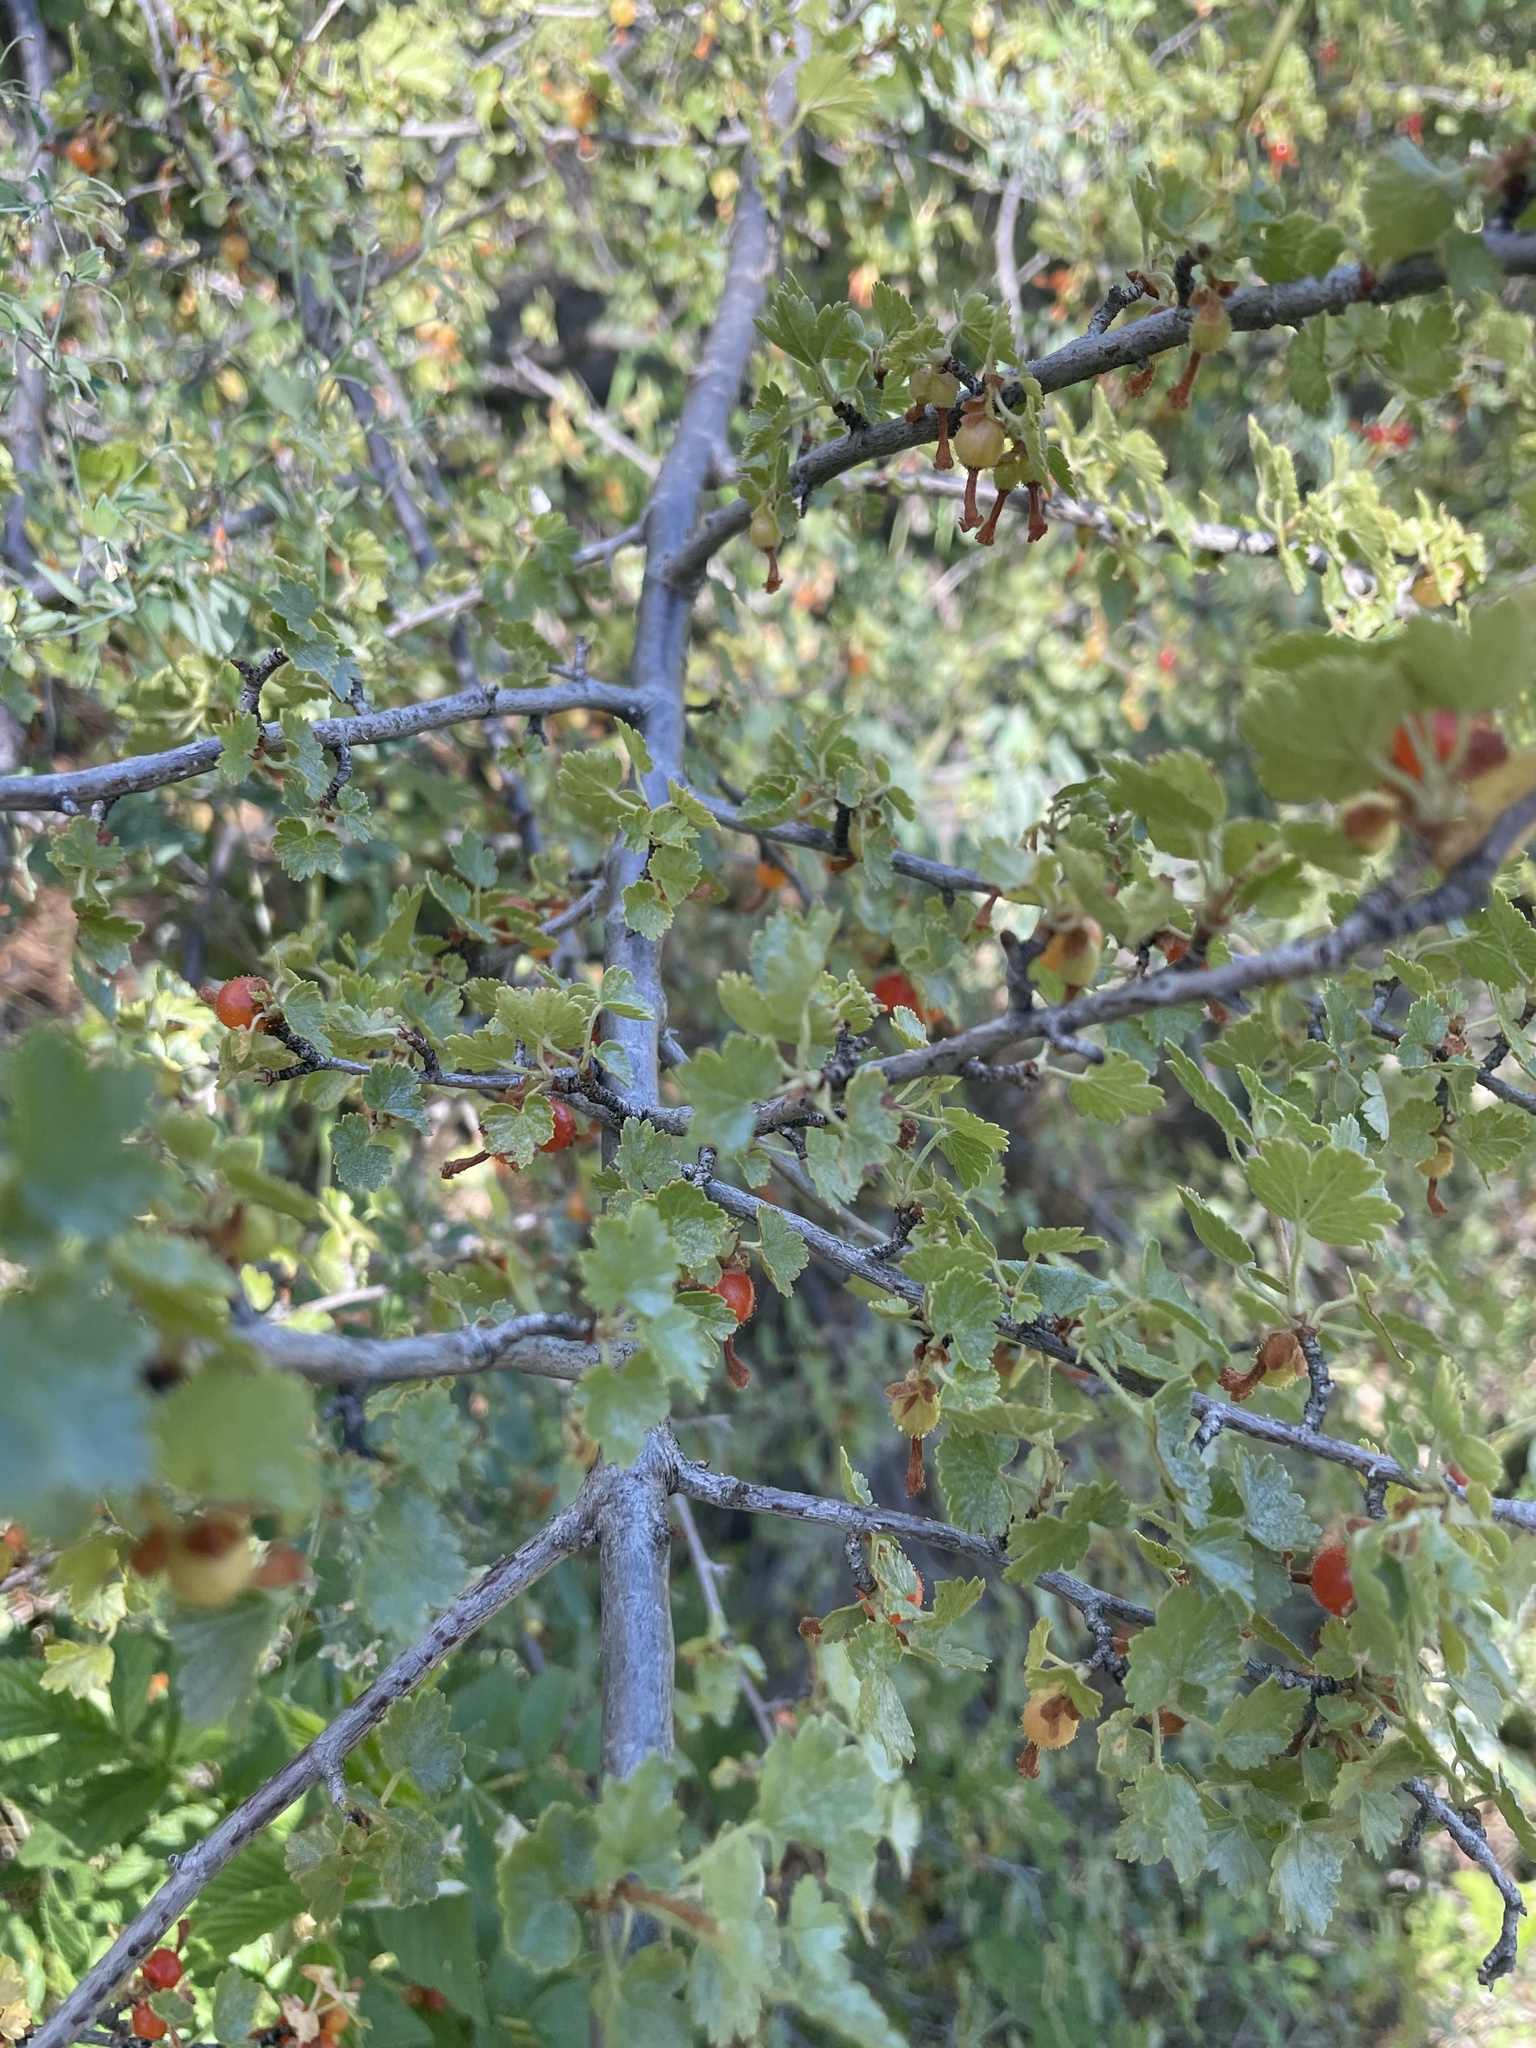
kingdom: Plantae
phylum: Tracheophyta
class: Magnoliopsida
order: Saxifragales
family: Grossulariaceae
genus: Ribes
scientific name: Ribes cereum
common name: Wax currant
